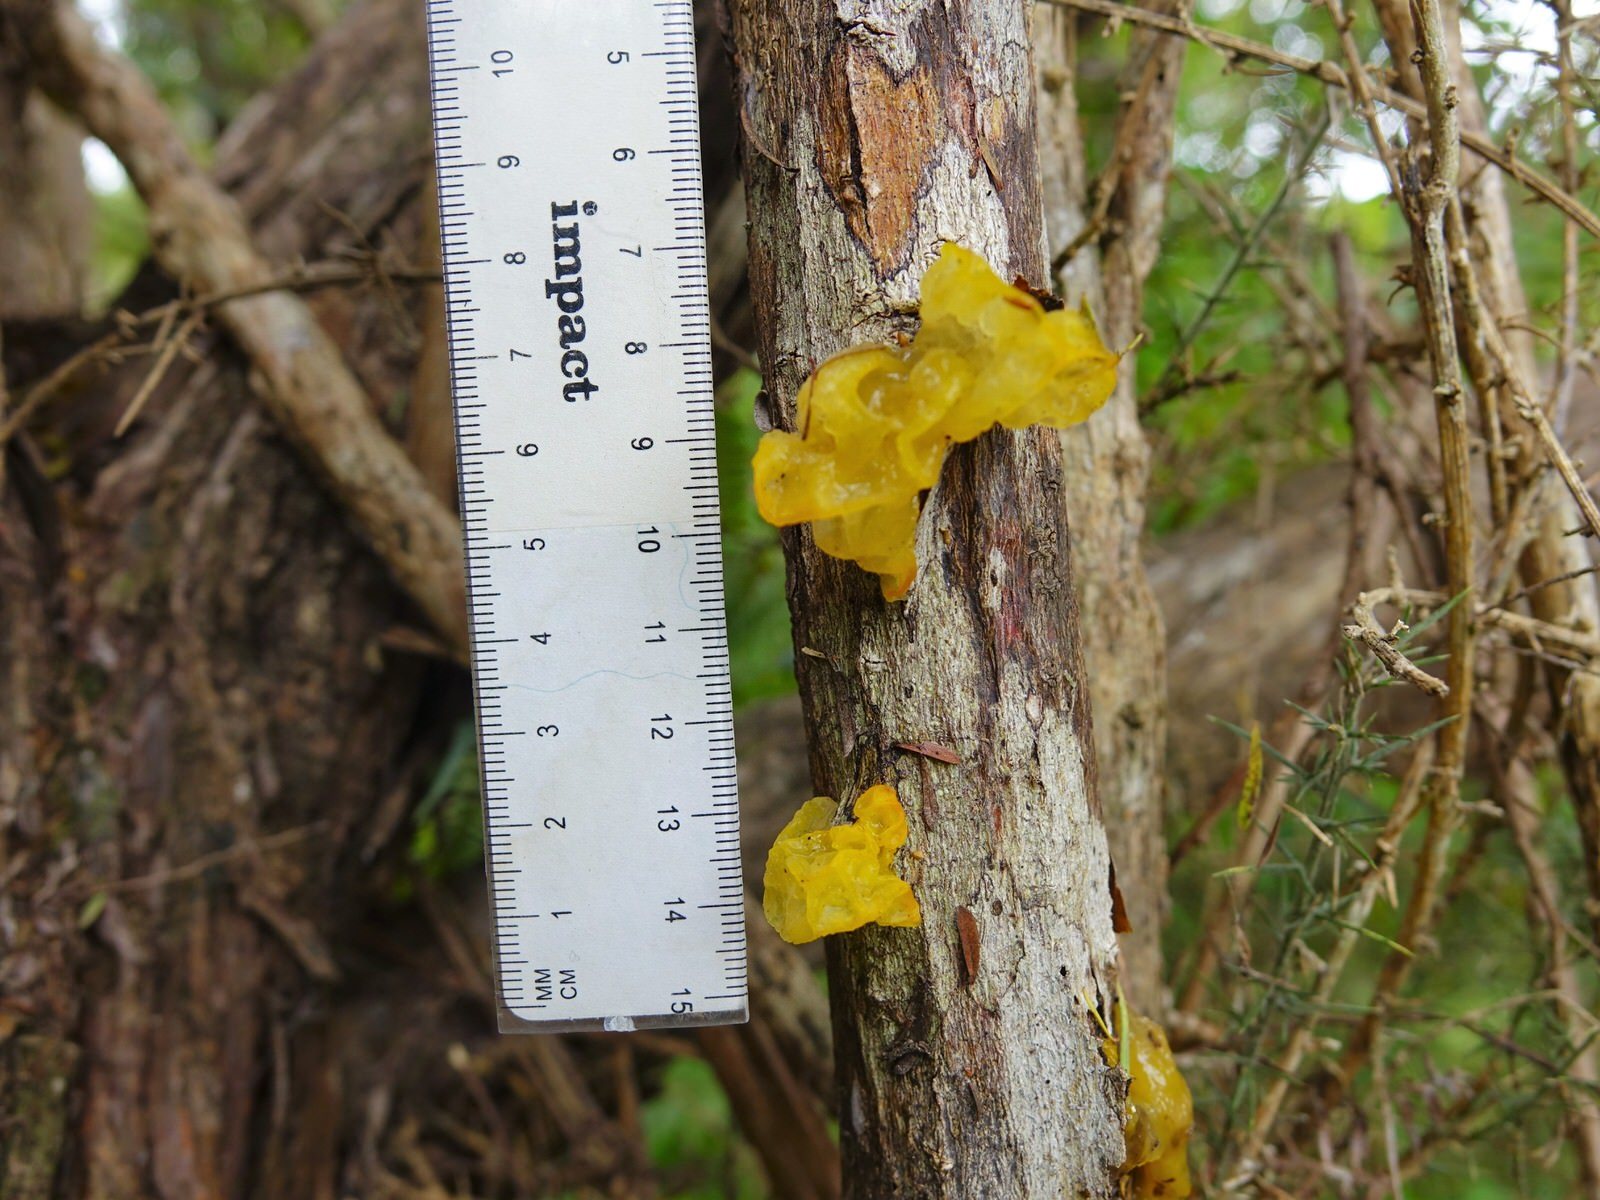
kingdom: Fungi
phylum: Basidiomycota
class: Tremellomycetes
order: Tremellales
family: Tremellaceae
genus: Tremella
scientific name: Tremella mesenterica
